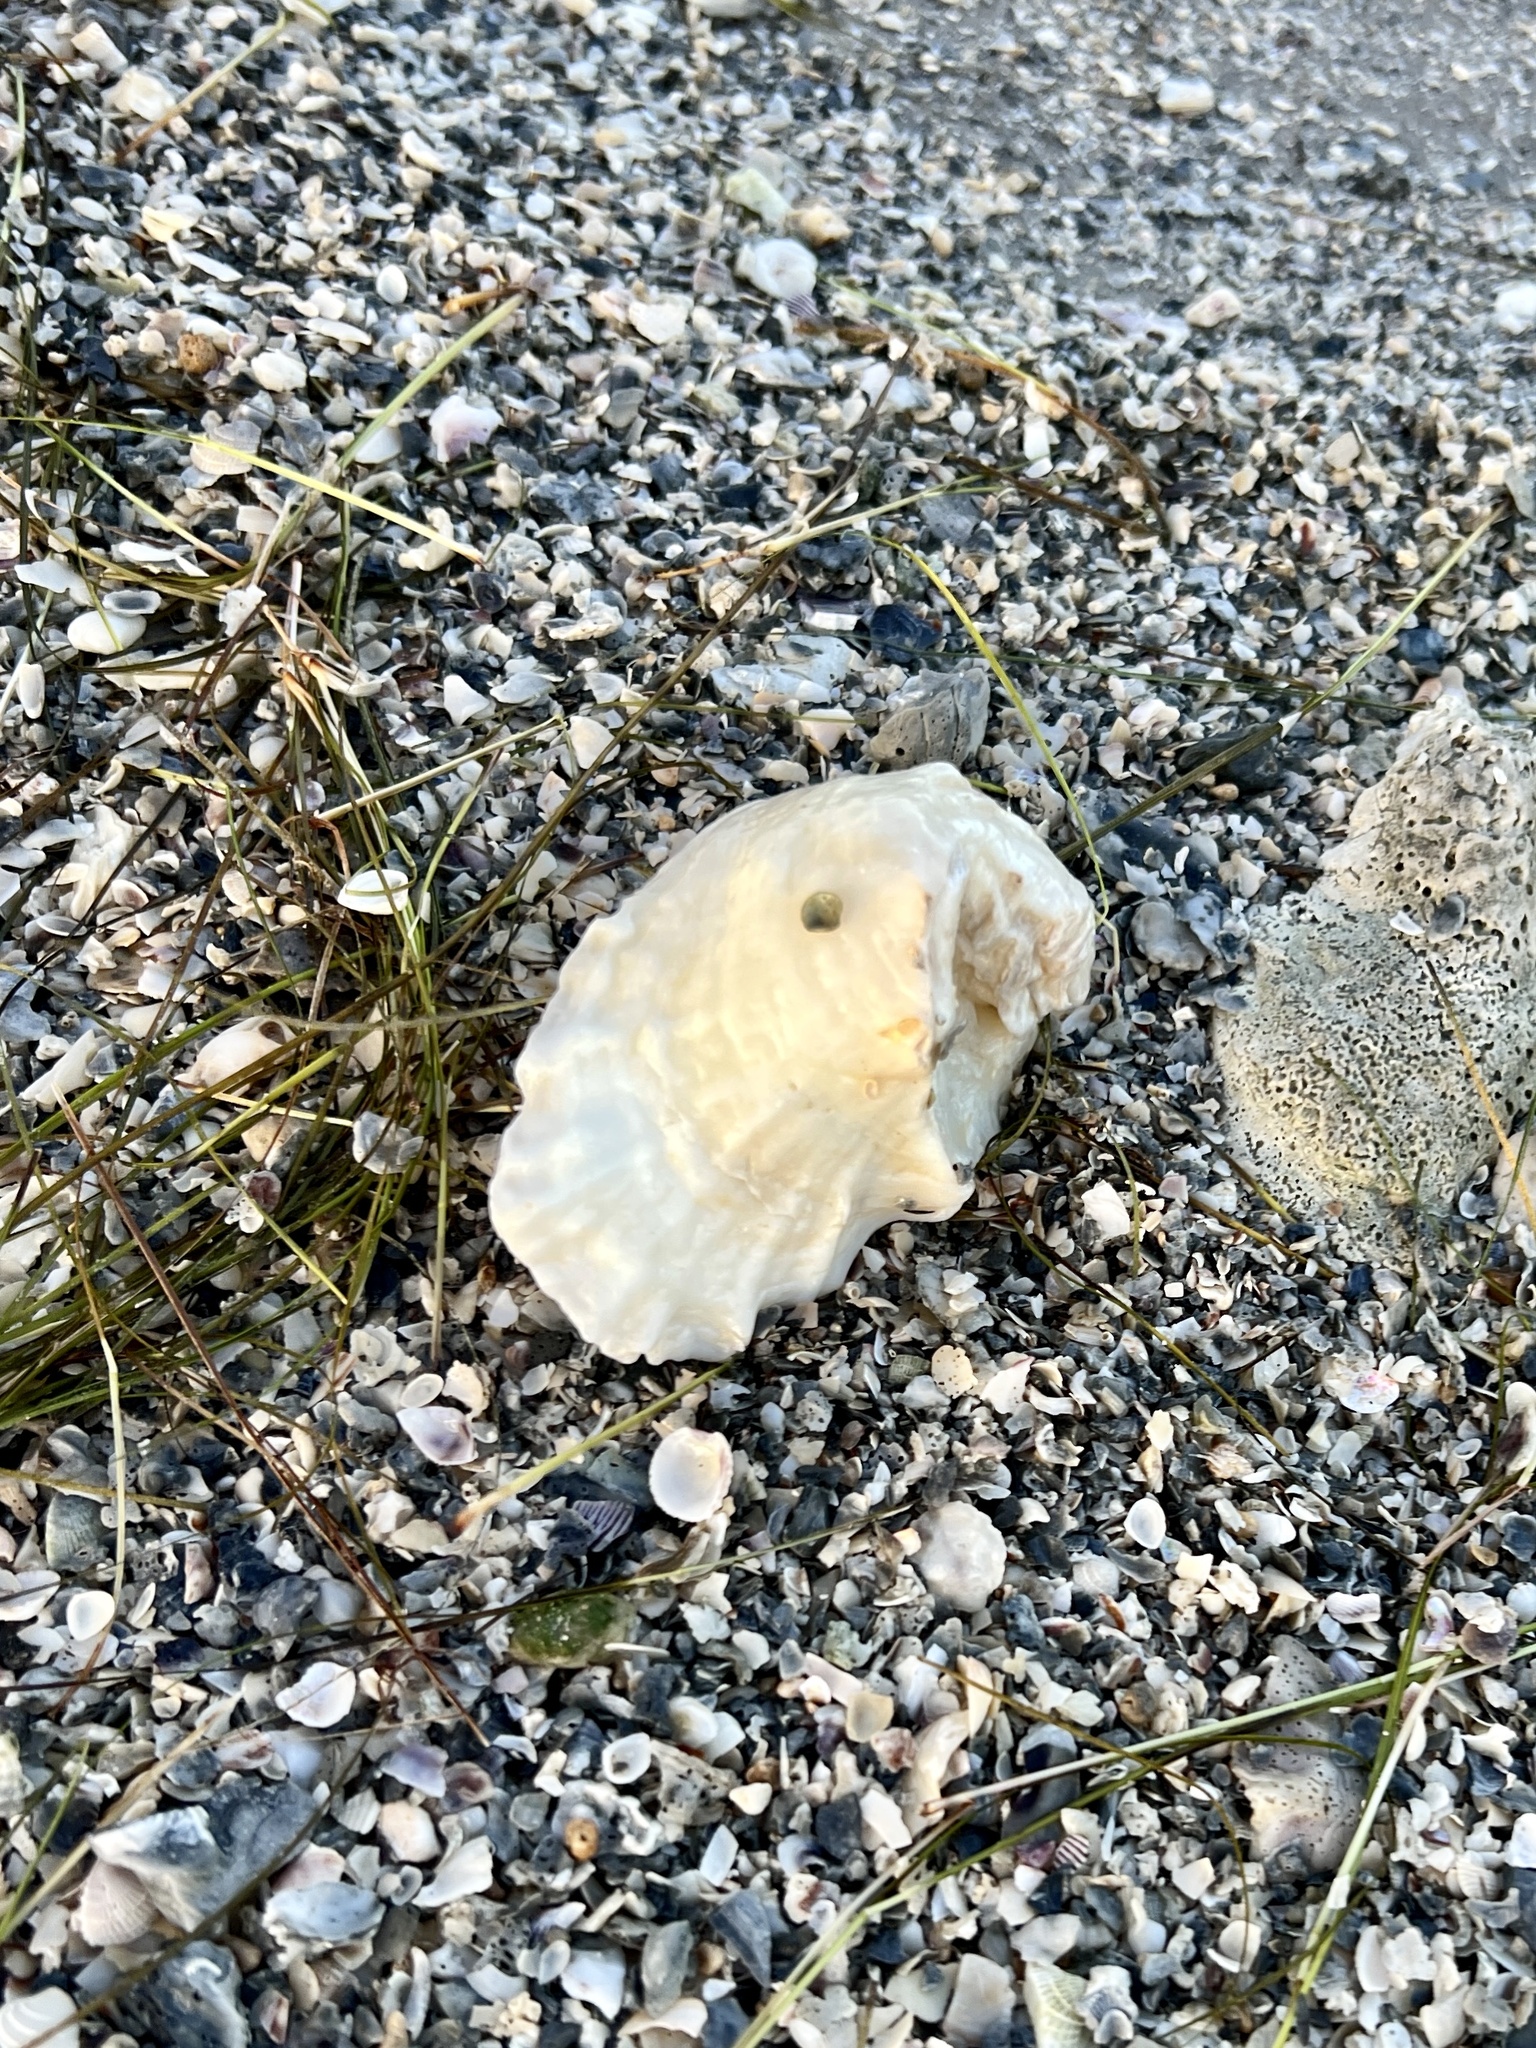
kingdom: Animalia
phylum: Mollusca
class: Bivalvia
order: Ostreida
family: Ostreidae
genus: Crassostrea
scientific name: Crassostrea virginica
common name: American oyster
